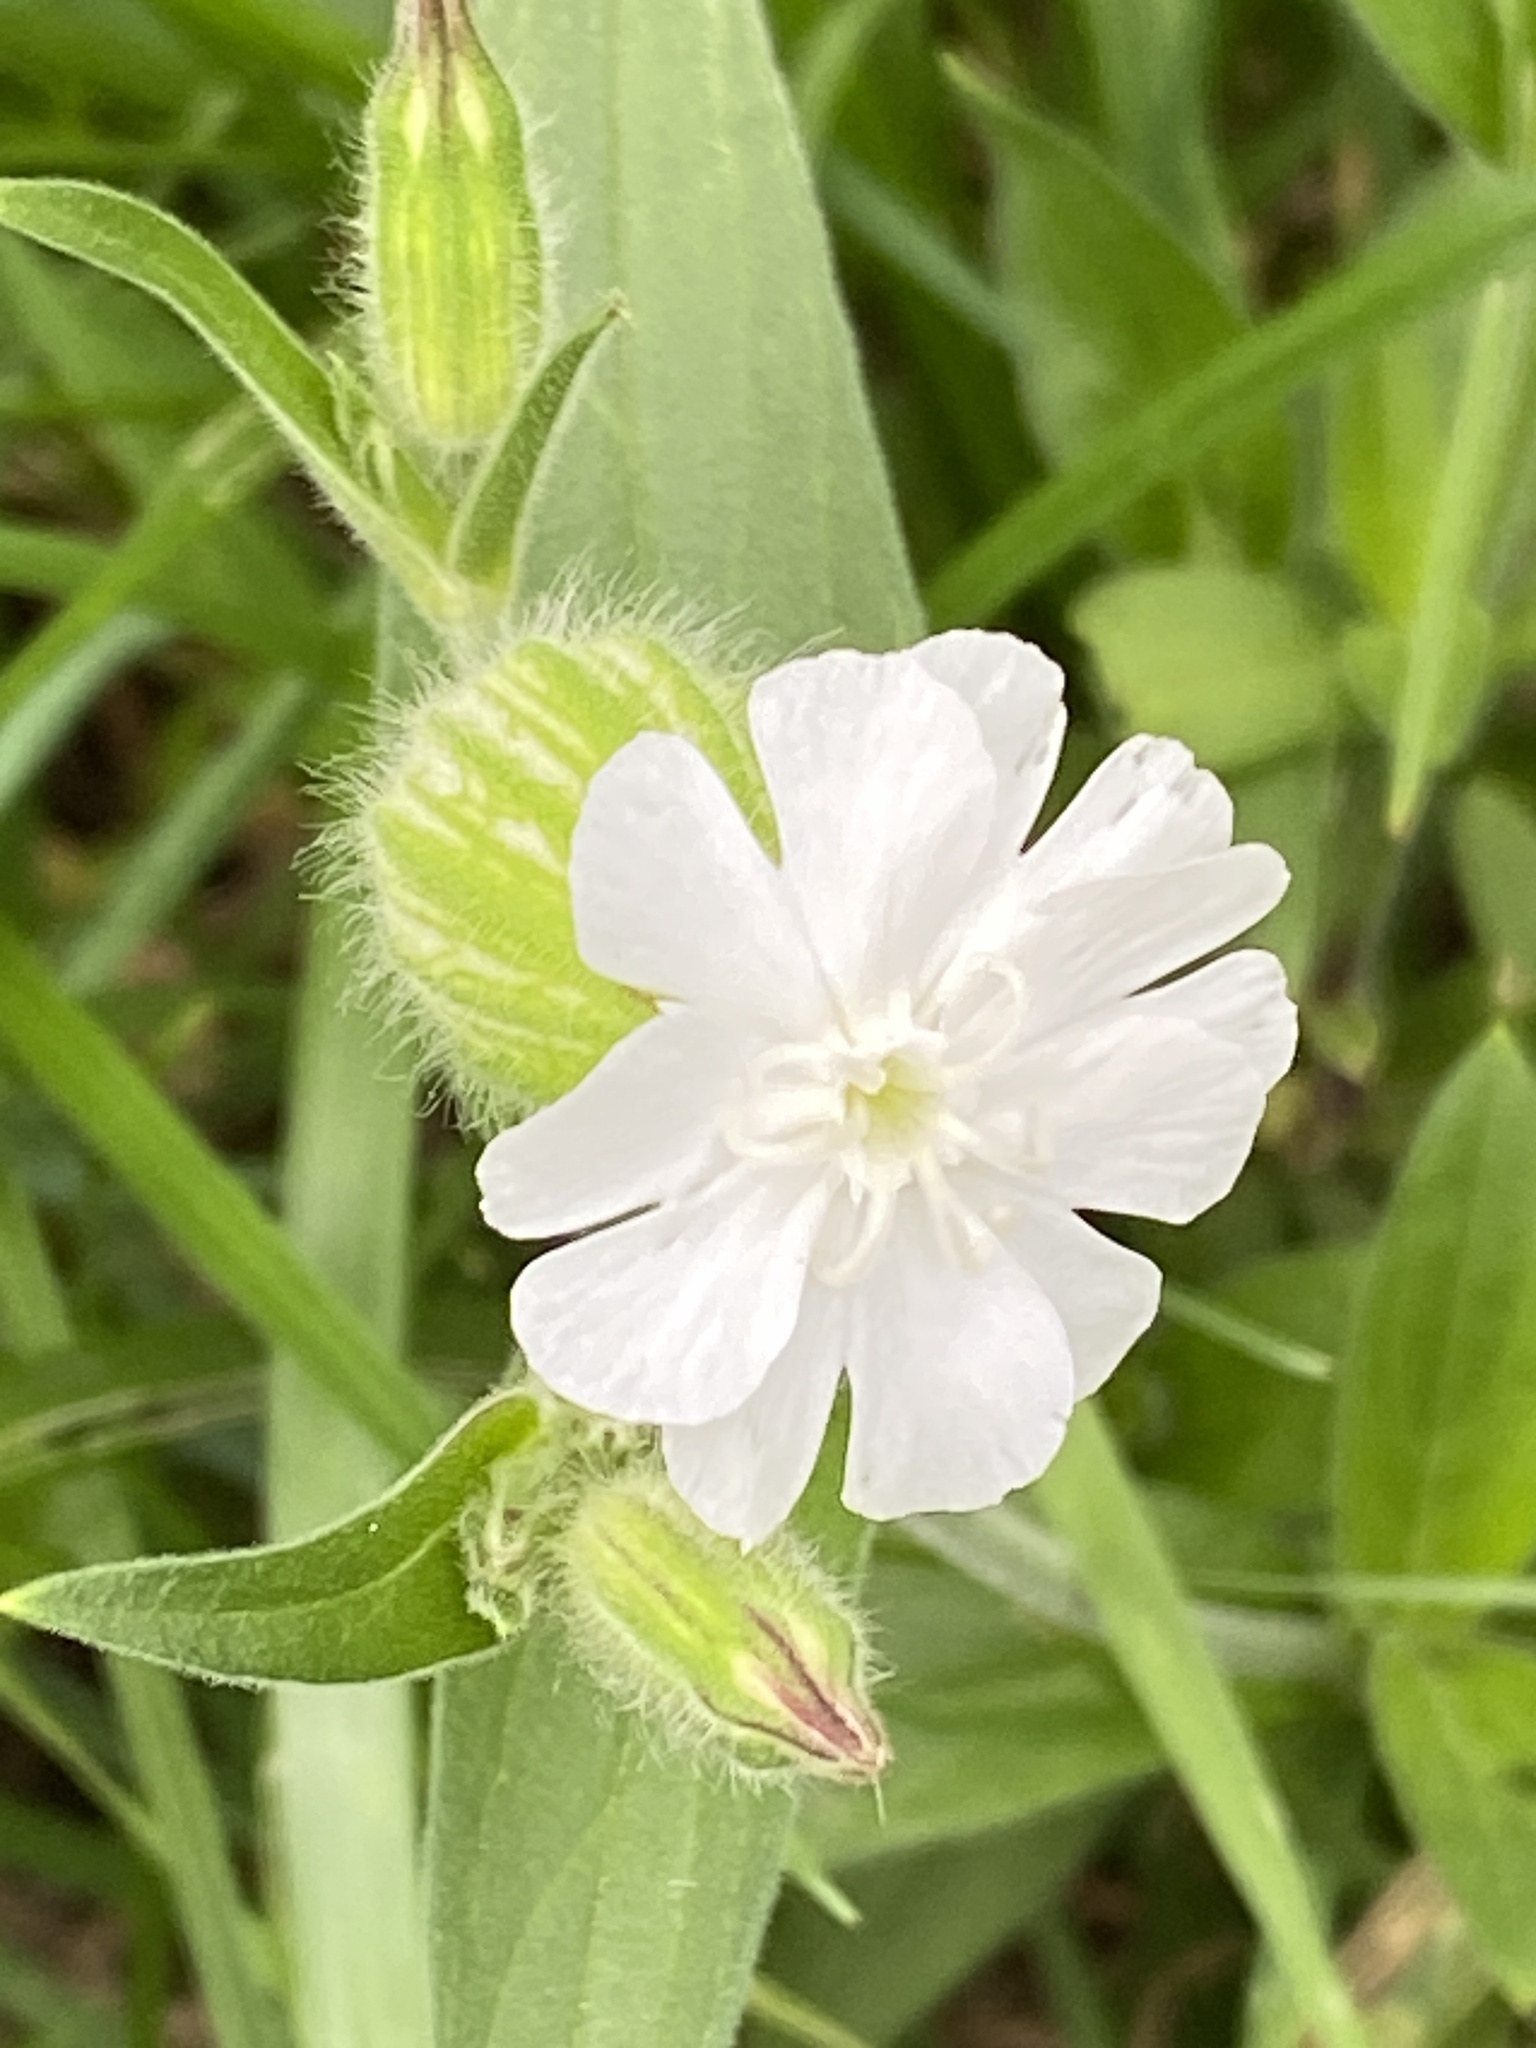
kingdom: Plantae
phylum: Tracheophyta
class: Magnoliopsida
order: Caryophyllales
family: Caryophyllaceae
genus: Silene
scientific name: Silene latifolia
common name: White campion
